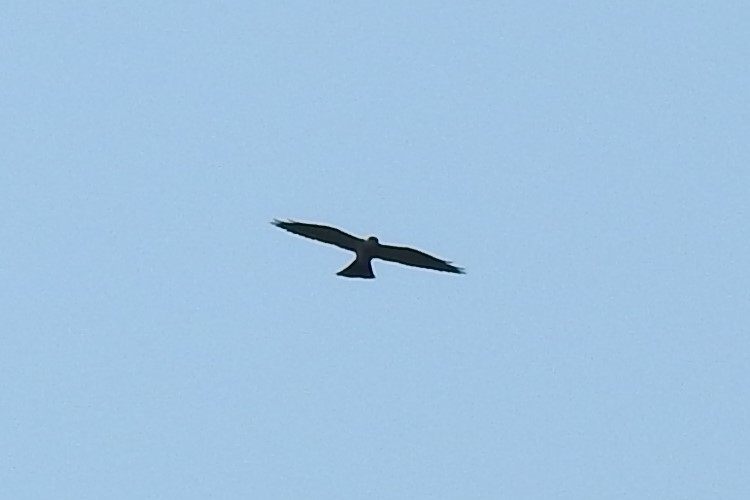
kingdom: Animalia
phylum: Chordata
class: Aves
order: Accipitriformes
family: Accipitridae
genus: Ictinia
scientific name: Ictinia mississippiensis
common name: Mississippi kite
